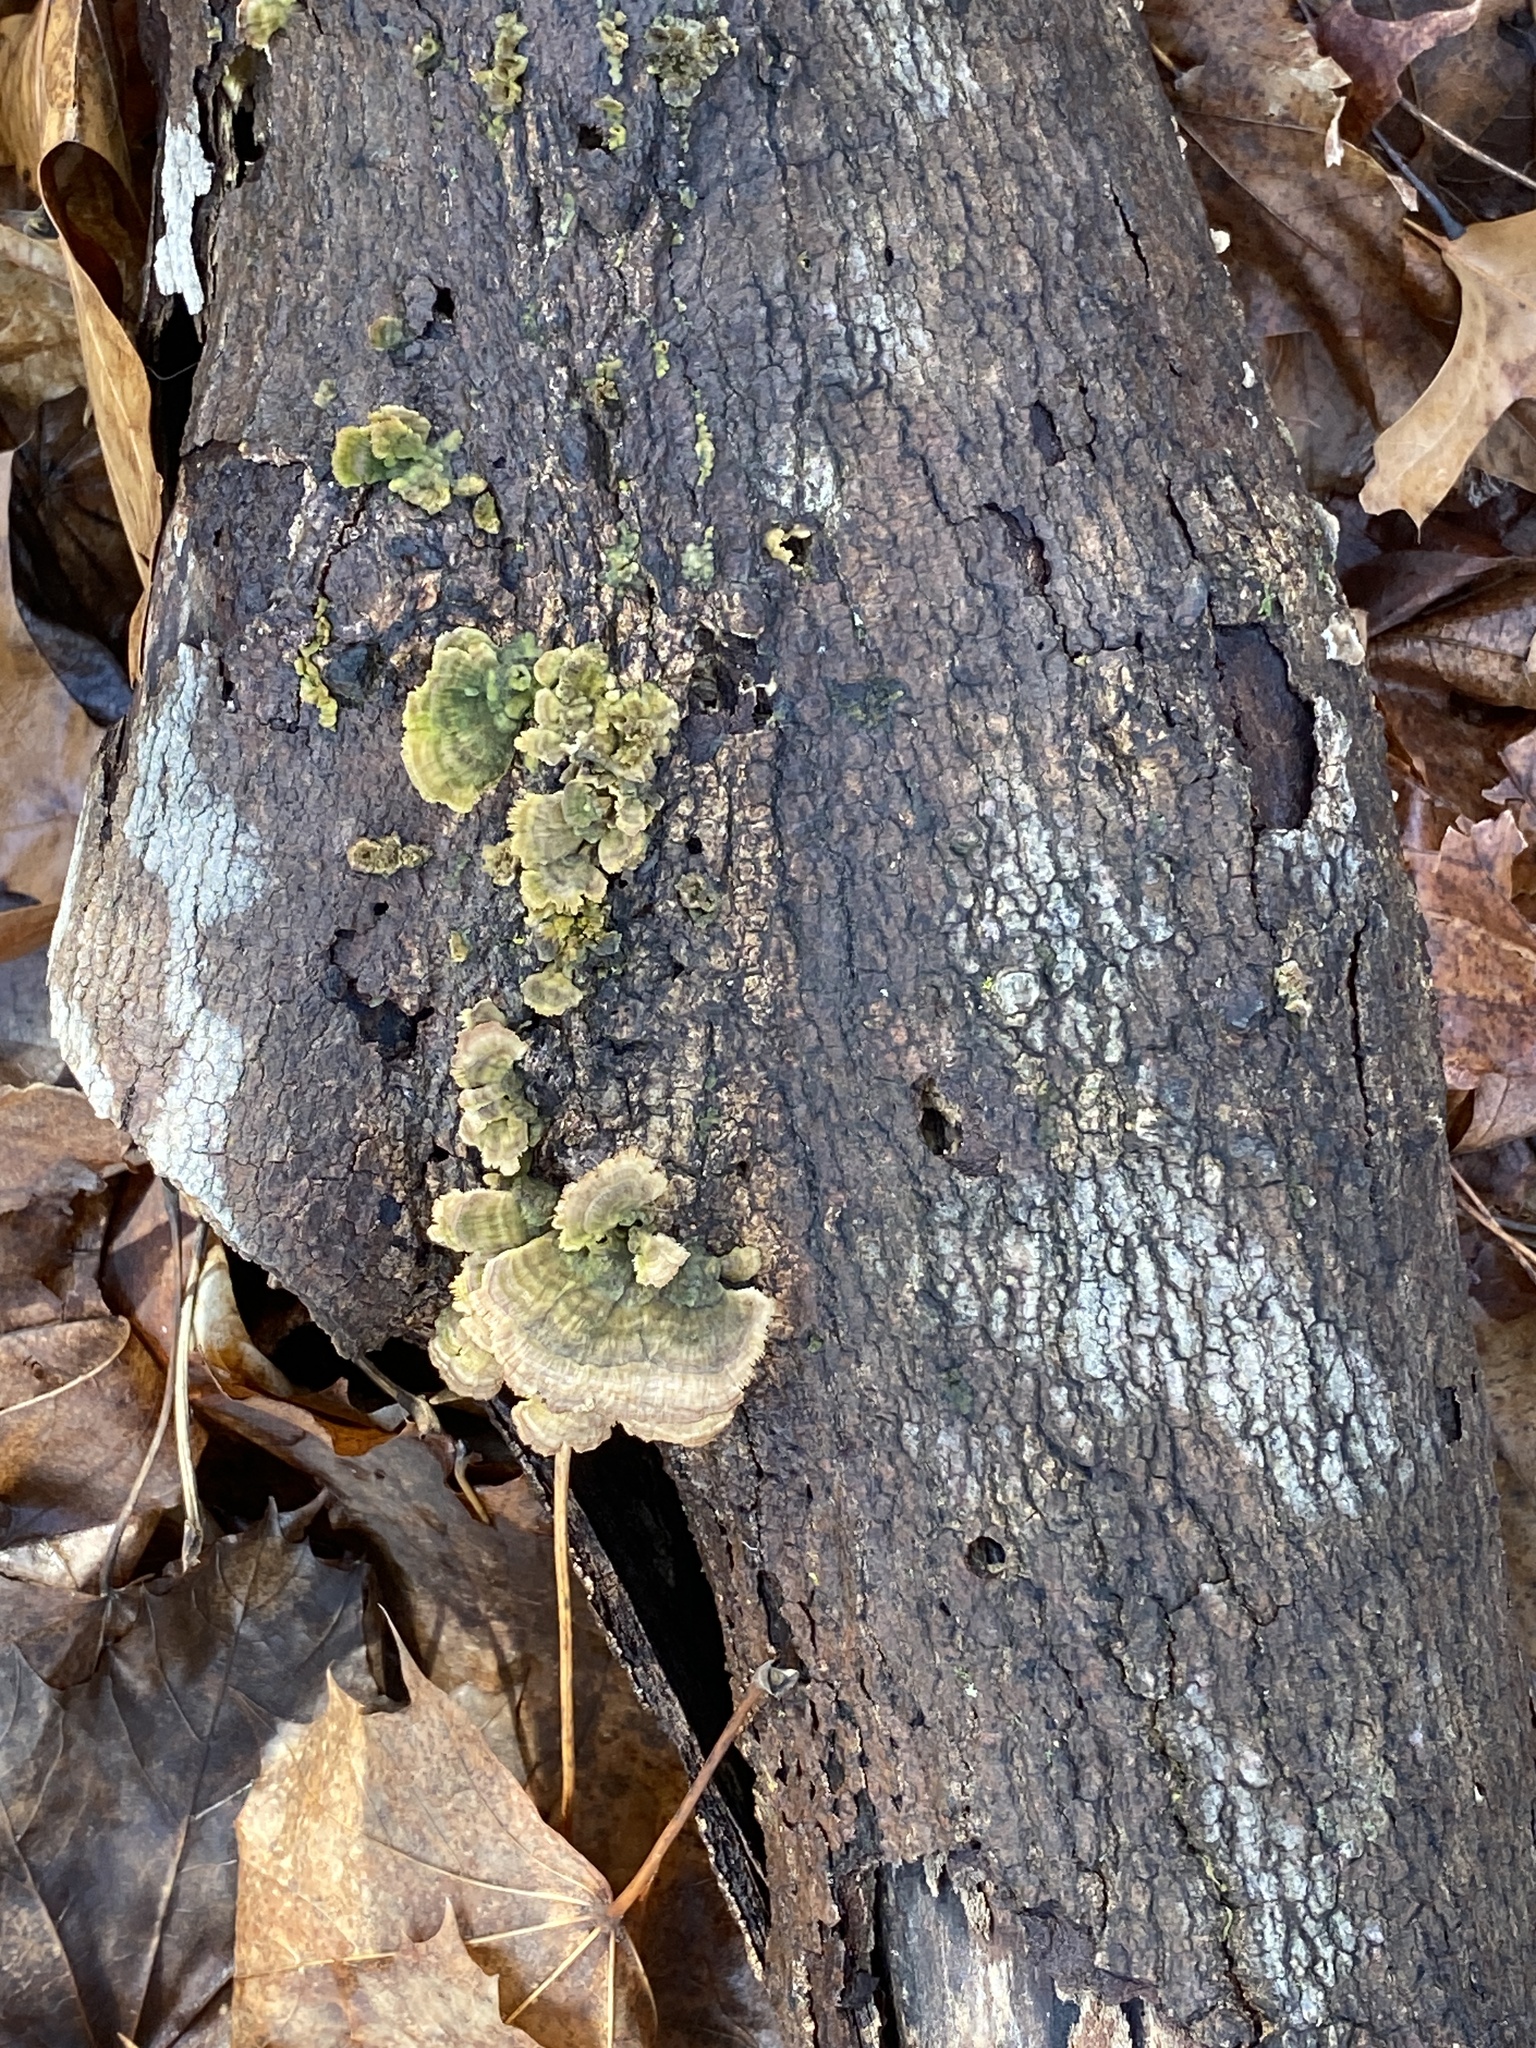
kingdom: Fungi
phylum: Basidiomycota
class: Agaricomycetes
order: Hymenochaetales
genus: Trichaptum
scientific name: Trichaptum biforme
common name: Violet-toothed polypore
